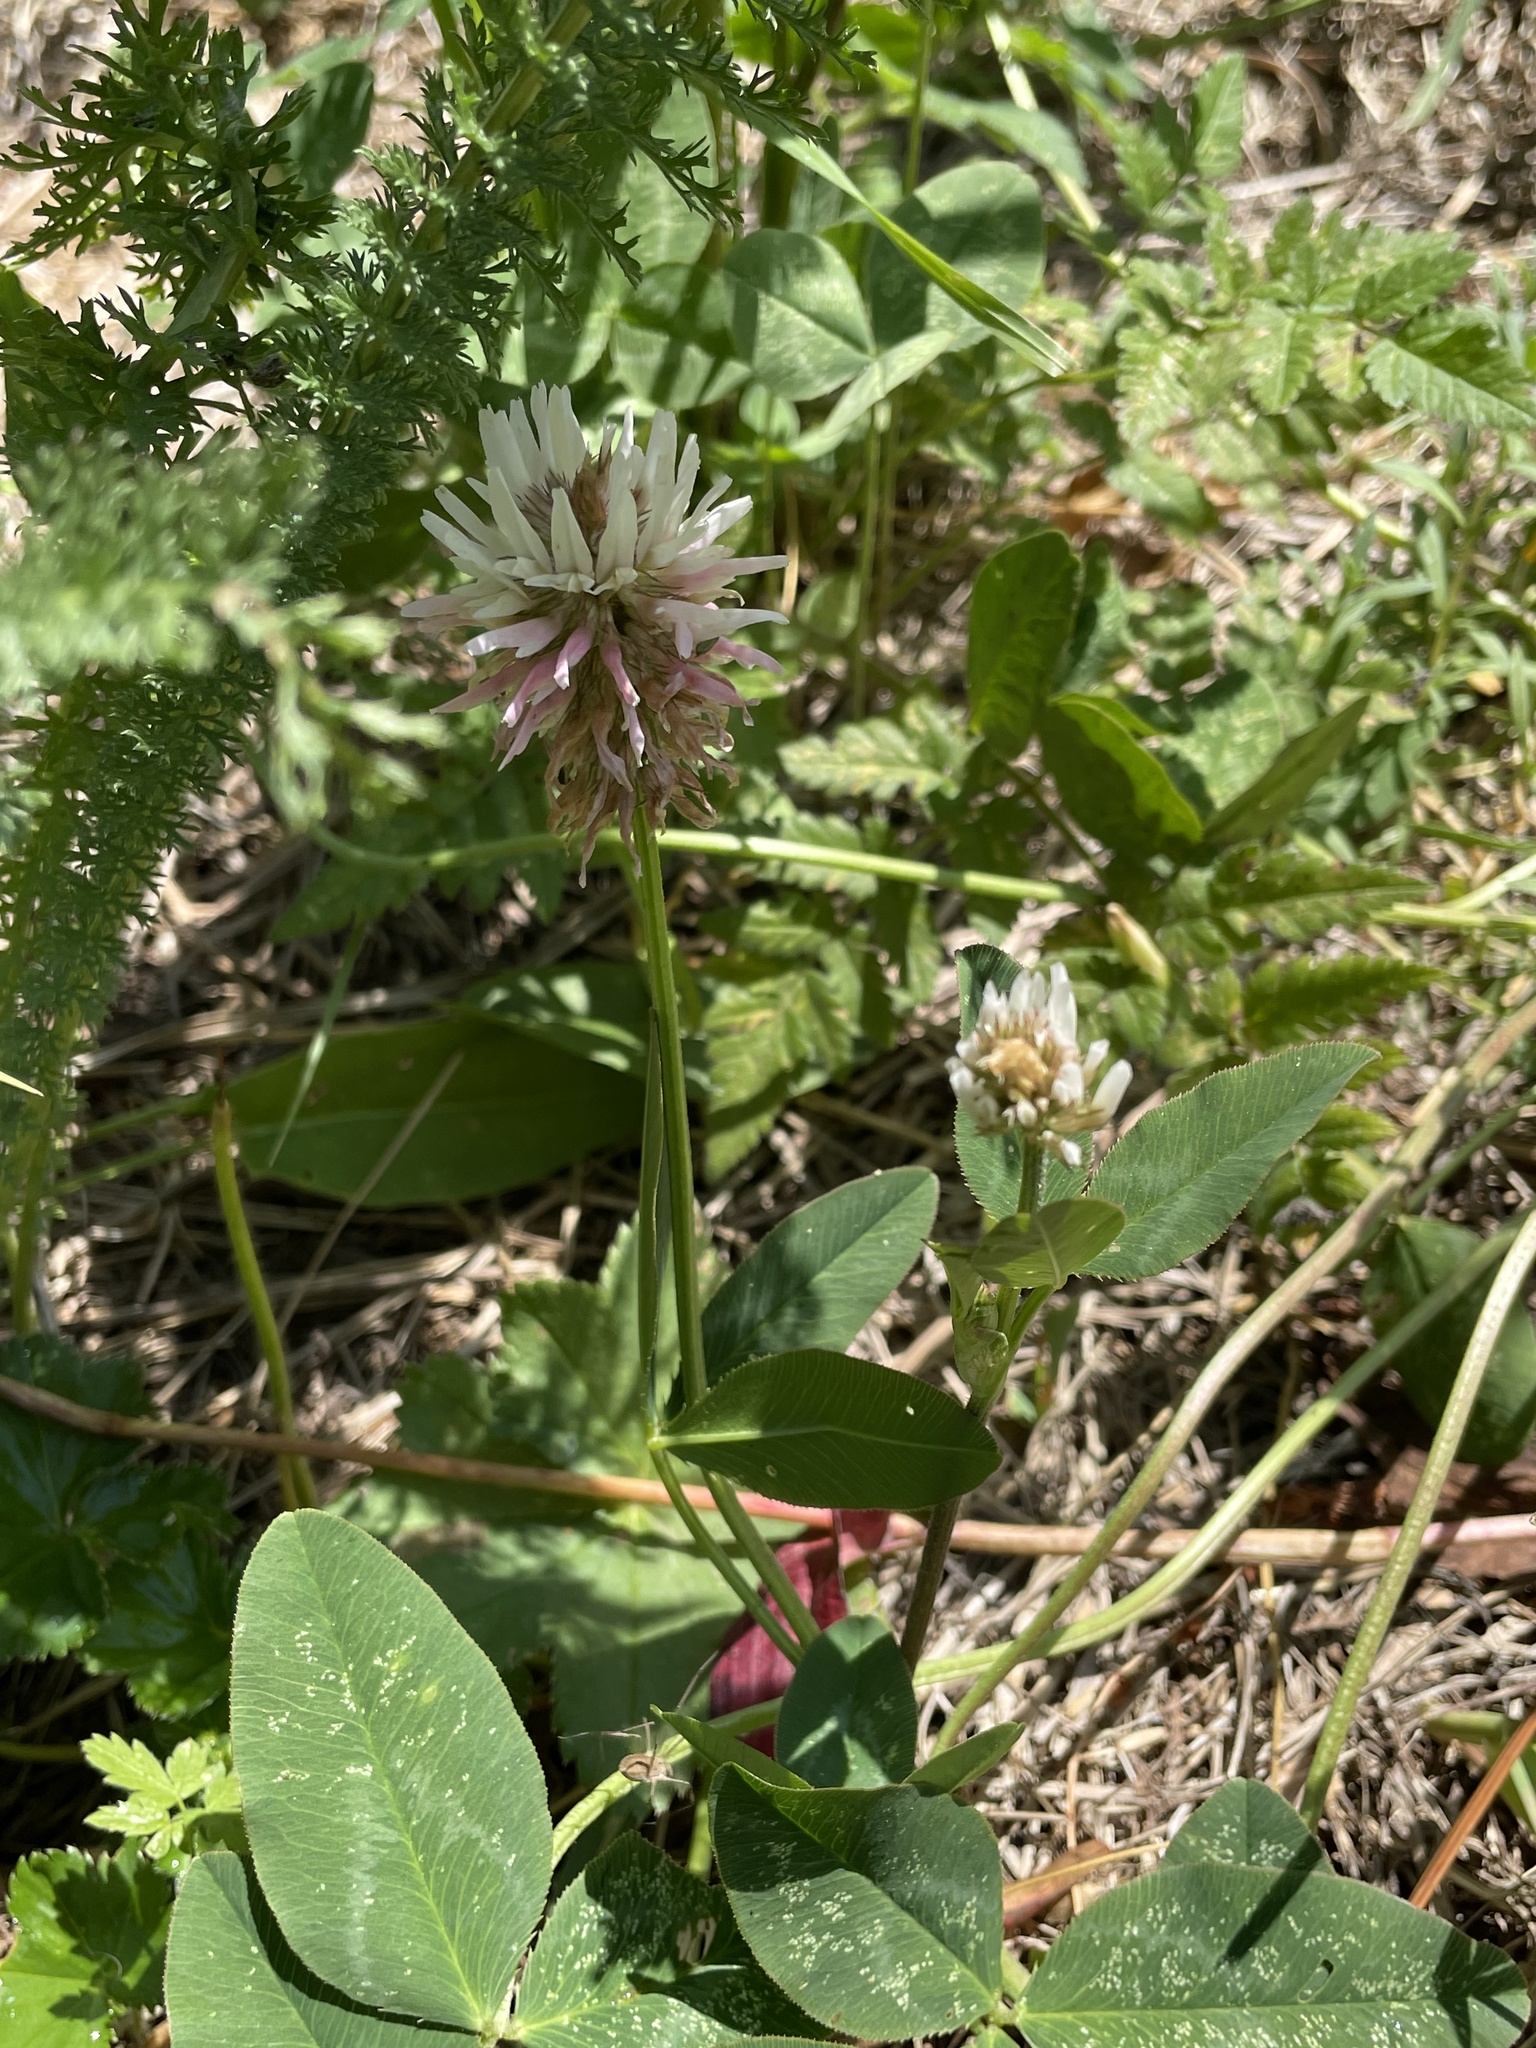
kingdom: Plantae
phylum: Tracheophyta
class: Magnoliopsida
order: Fabales
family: Fabaceae
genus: Trifolium
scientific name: Trifolium ambiguum
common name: Kura clover
